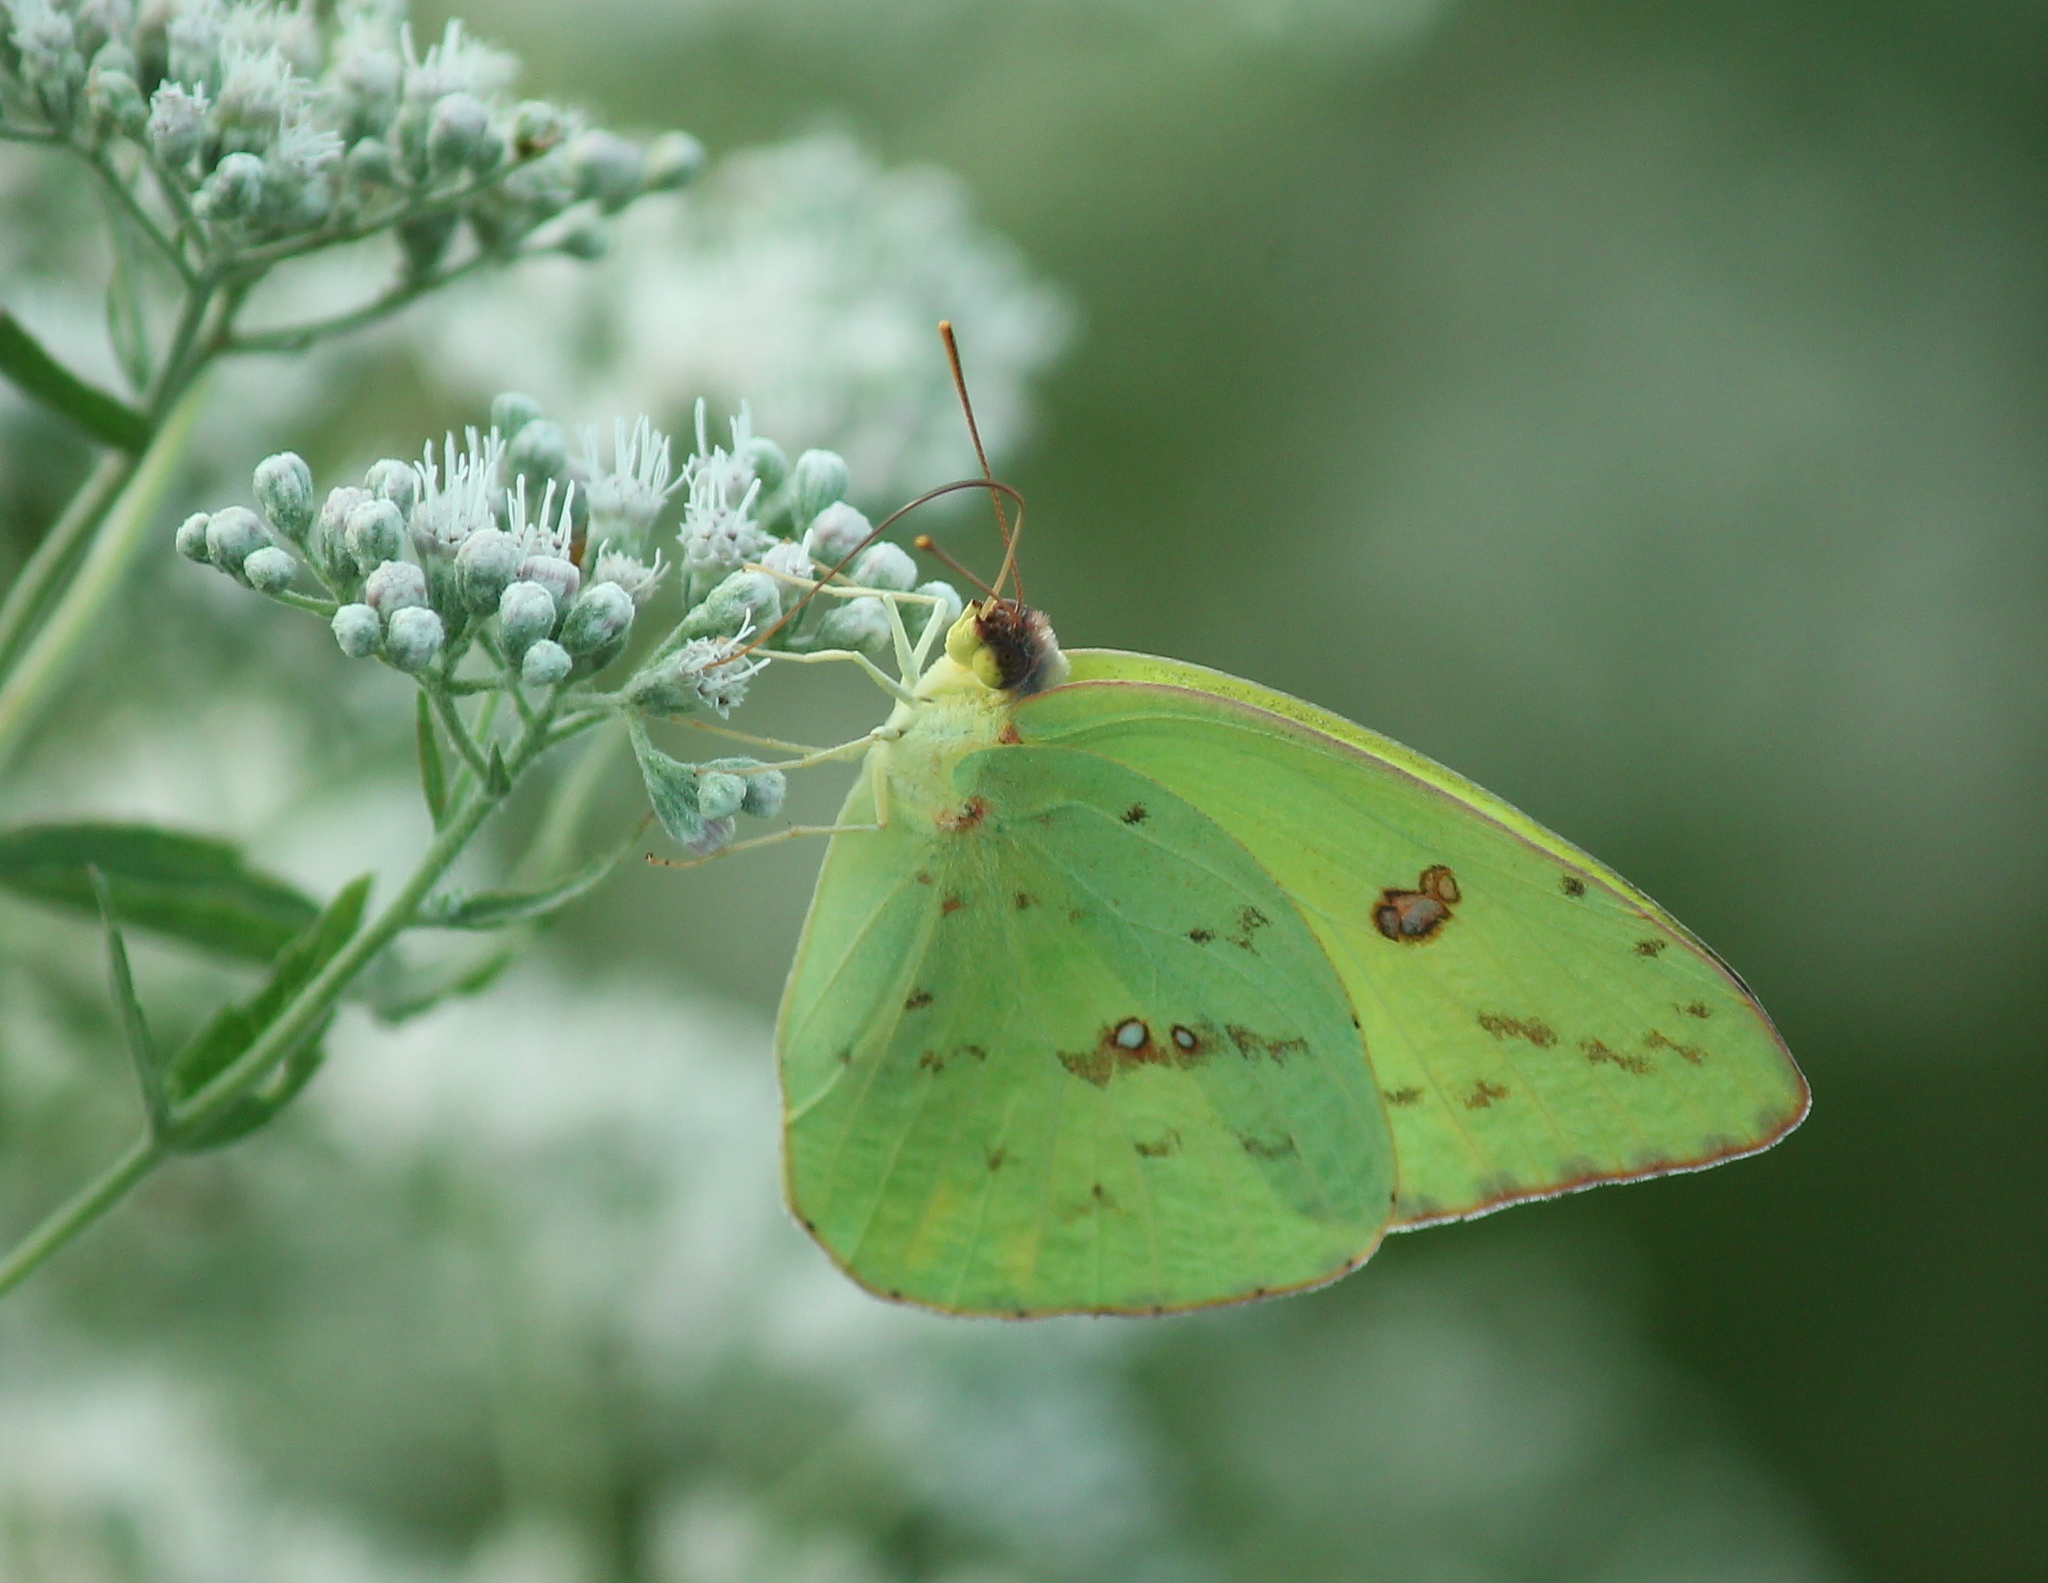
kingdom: Animalia
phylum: Arthropoda
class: Insecta
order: Lepidoptera
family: Pieridae
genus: Phoebis
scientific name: Phoebis sennae
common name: Cloudless sulphur
